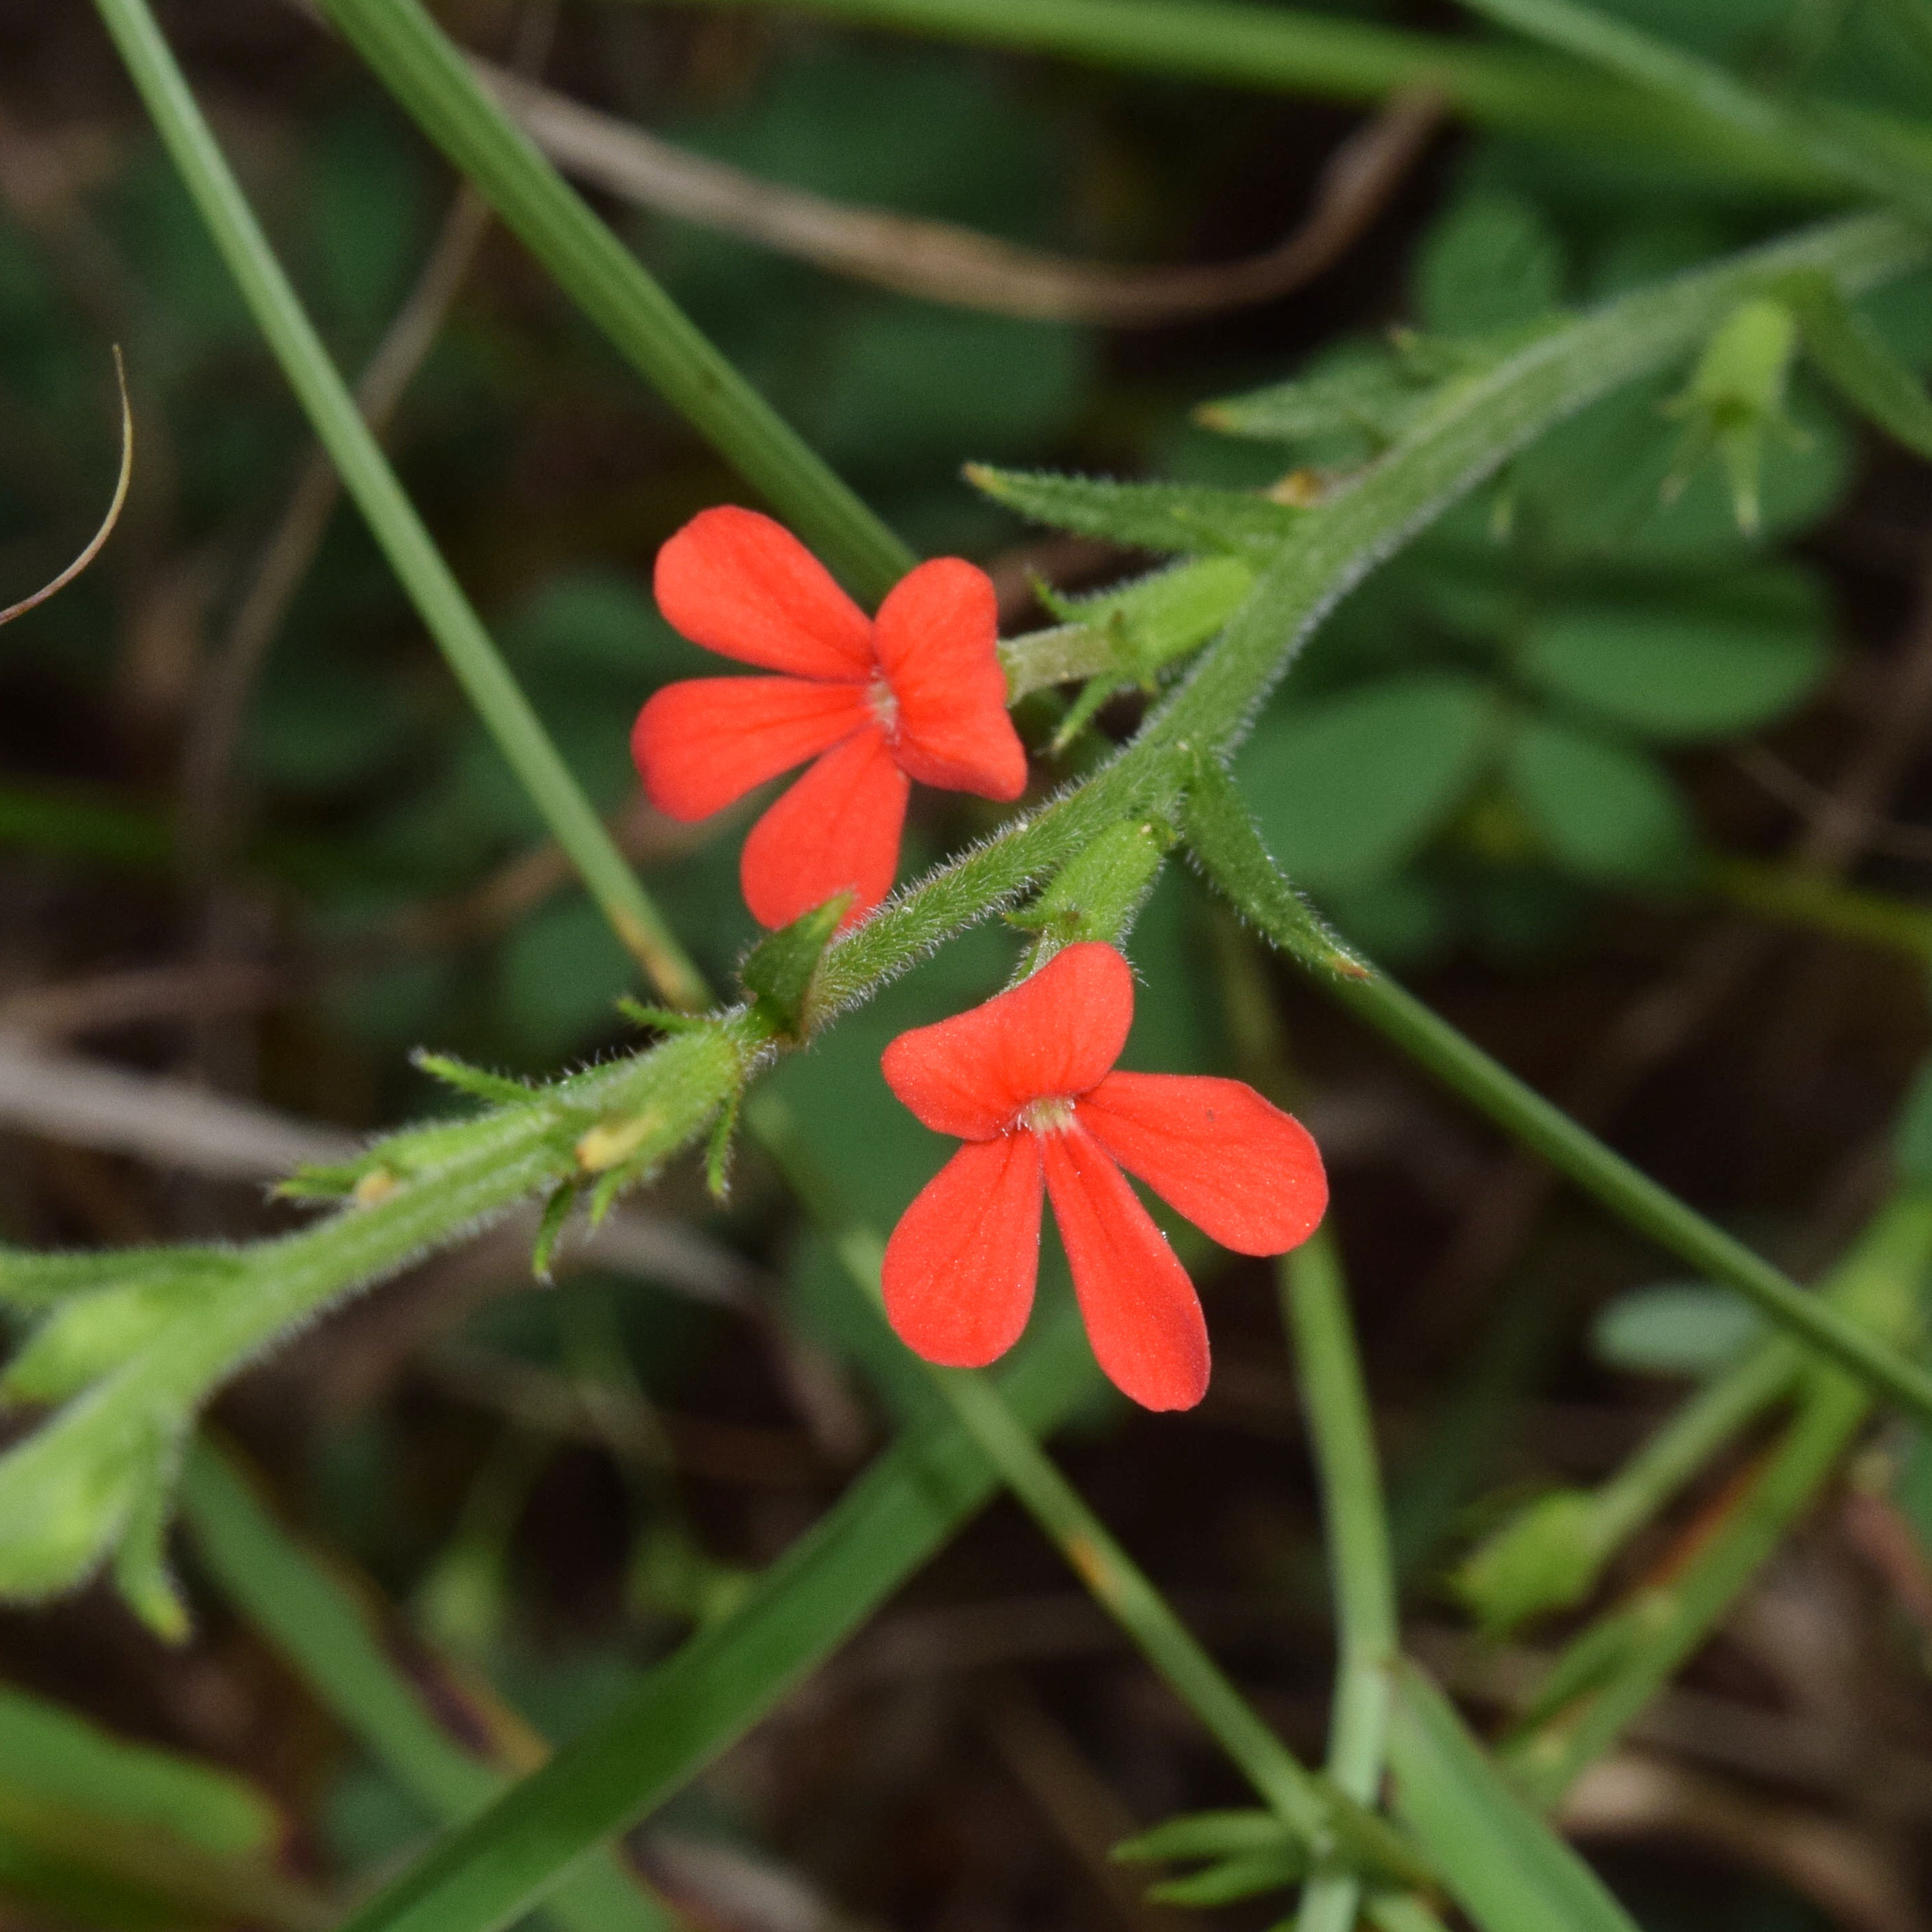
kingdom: Plantae
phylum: Tracheophyta
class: Magnoliopsida
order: Lamiales
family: Orobanchaceae
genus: Striga
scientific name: Striga elegans
